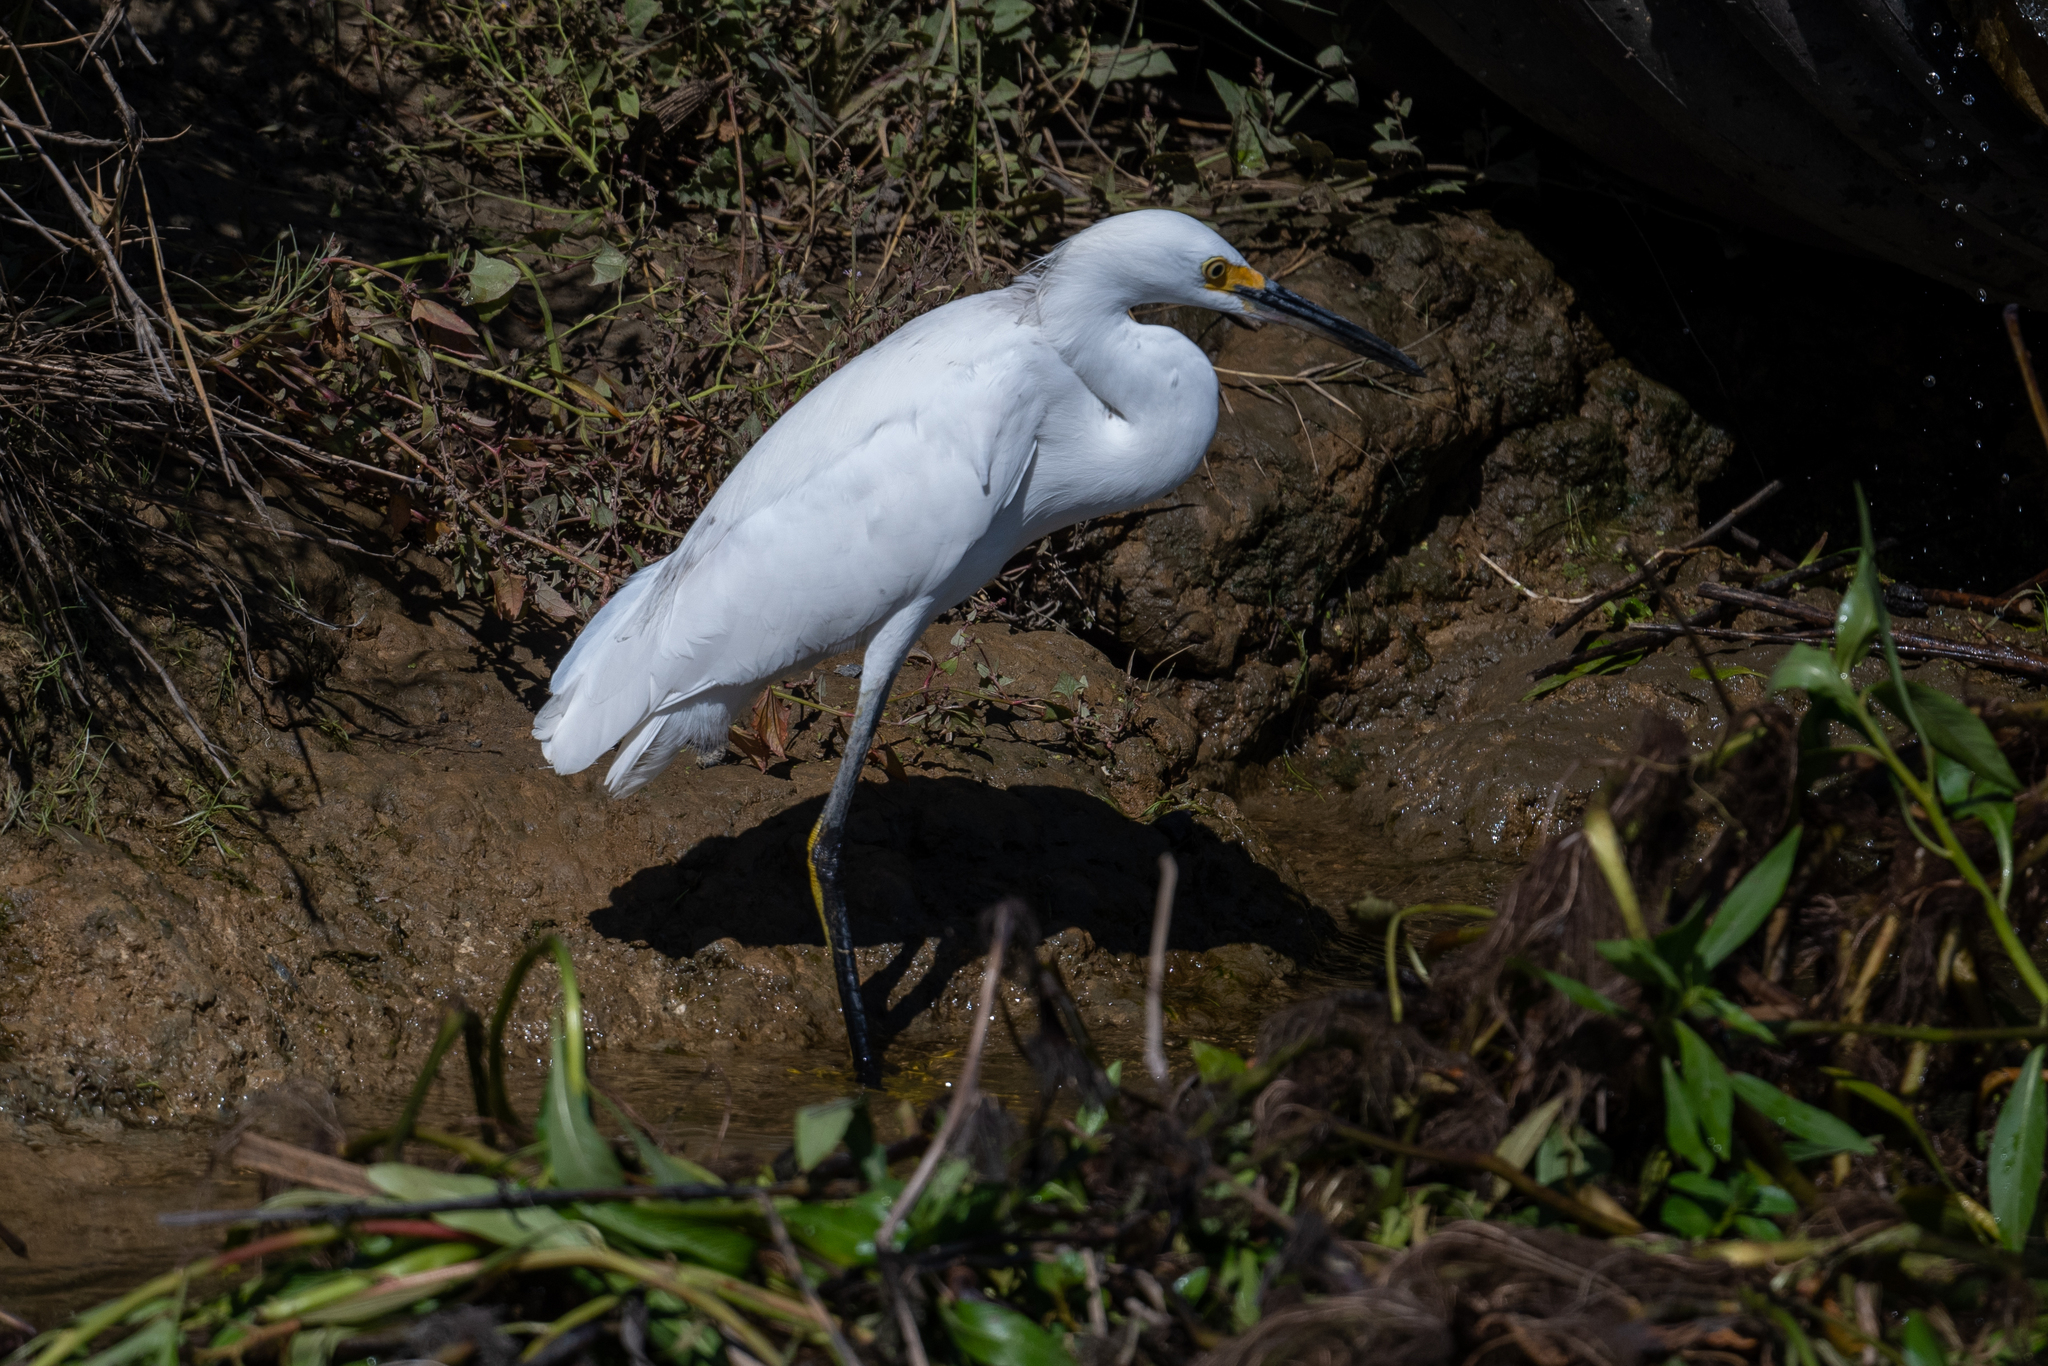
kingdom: Animalia
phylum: Chordata
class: Aves
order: Pelecaniformes
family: Ardeidae
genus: Egretta
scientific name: Egretta thula
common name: Snowy egret
